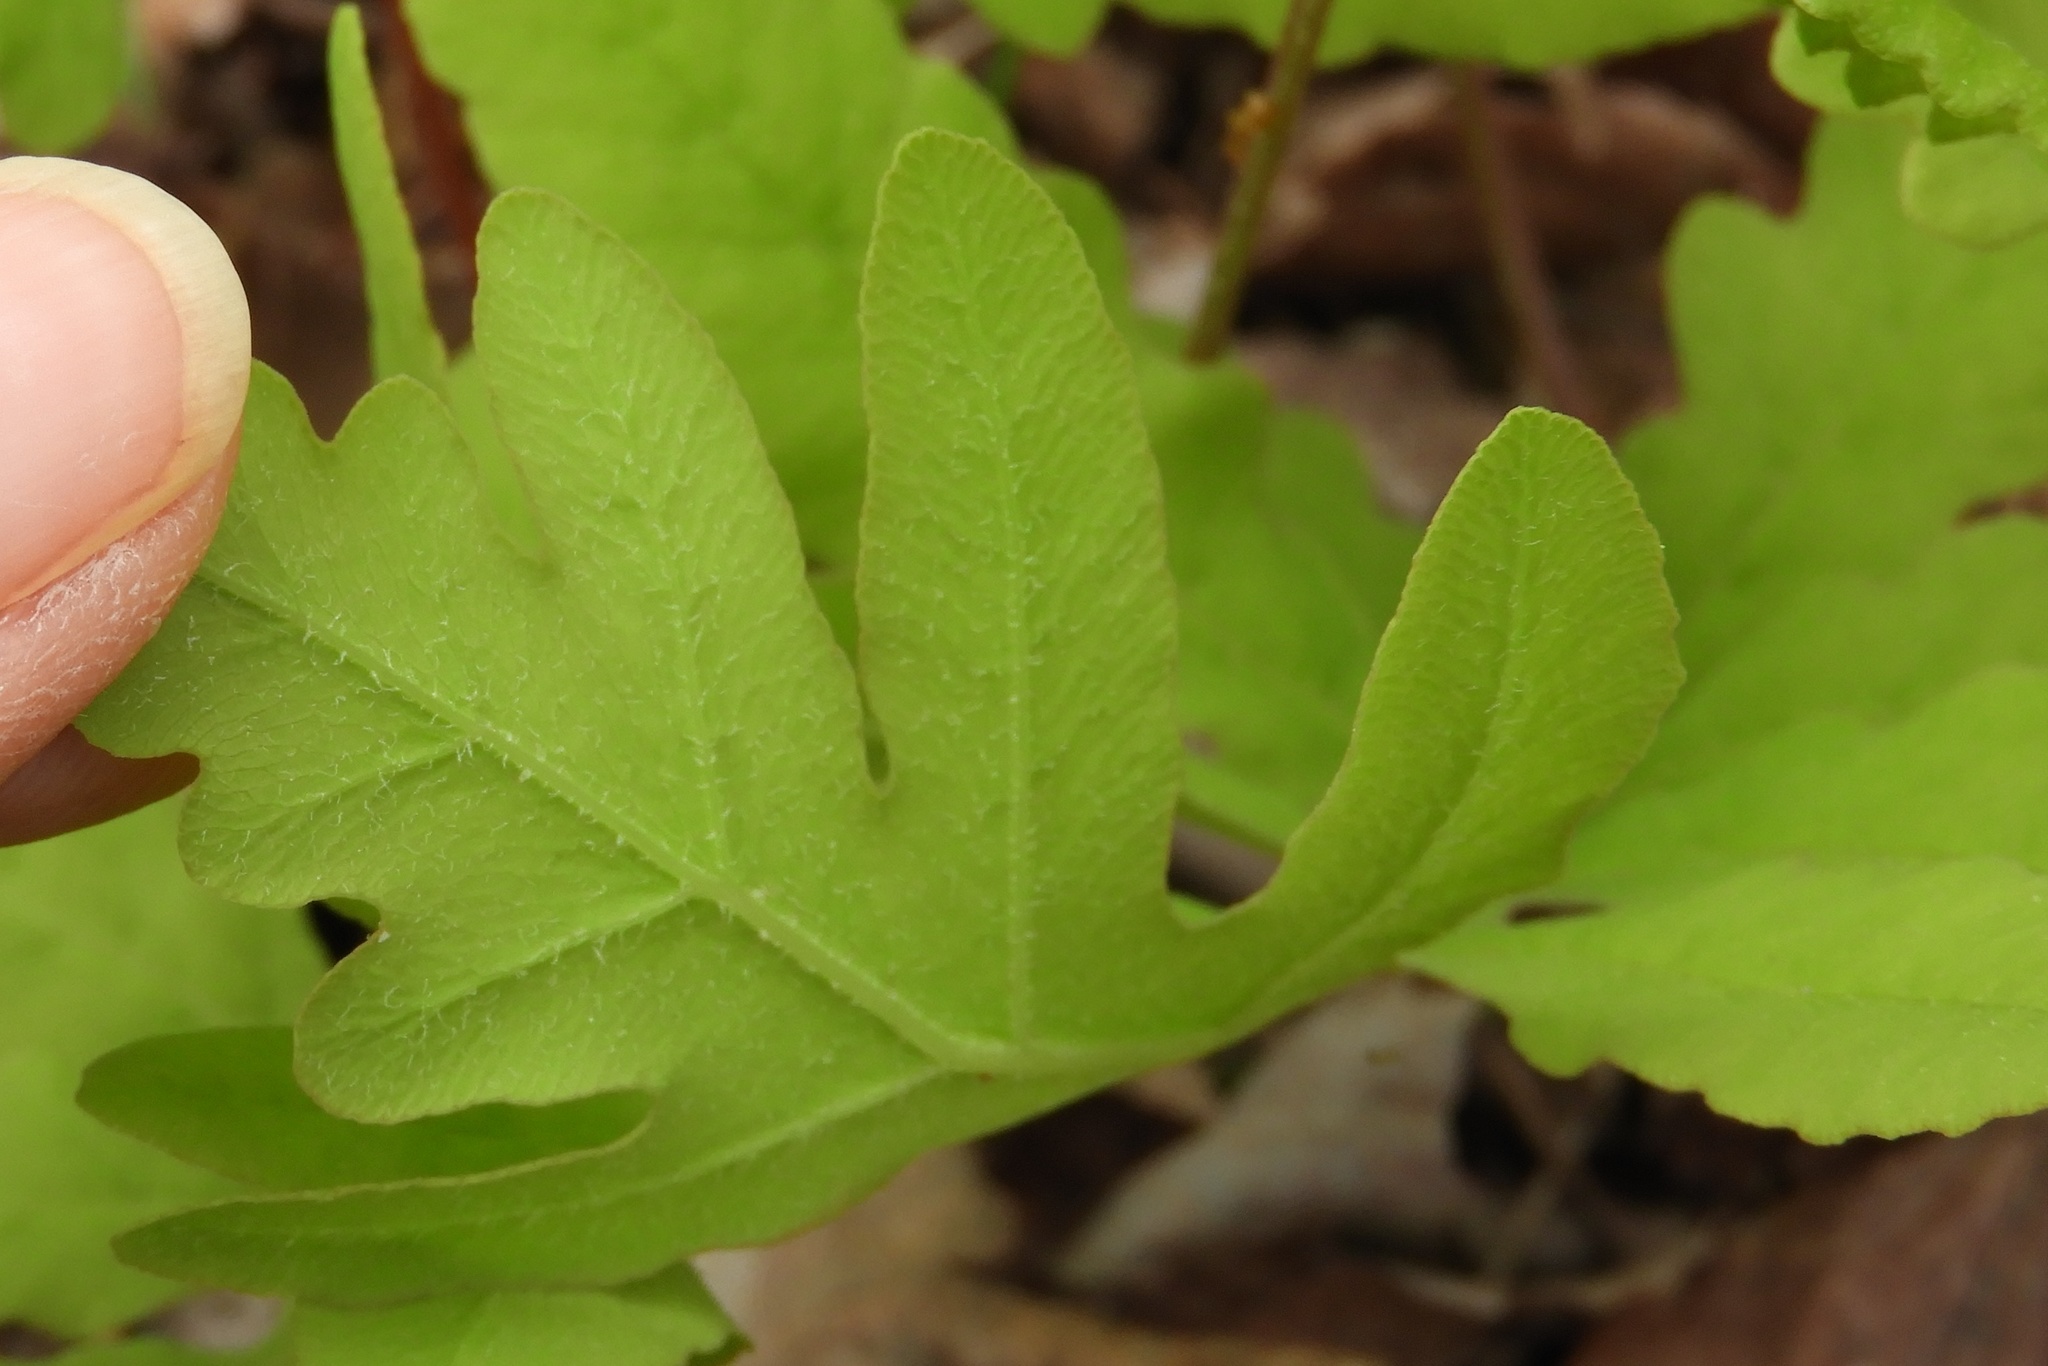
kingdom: Plantae
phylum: Tracheophyta
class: Polypodiopsida
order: Polypodiales
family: Onocleaceae
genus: Onoclea
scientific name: Onoclea sensibilis
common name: Sensitive fern
